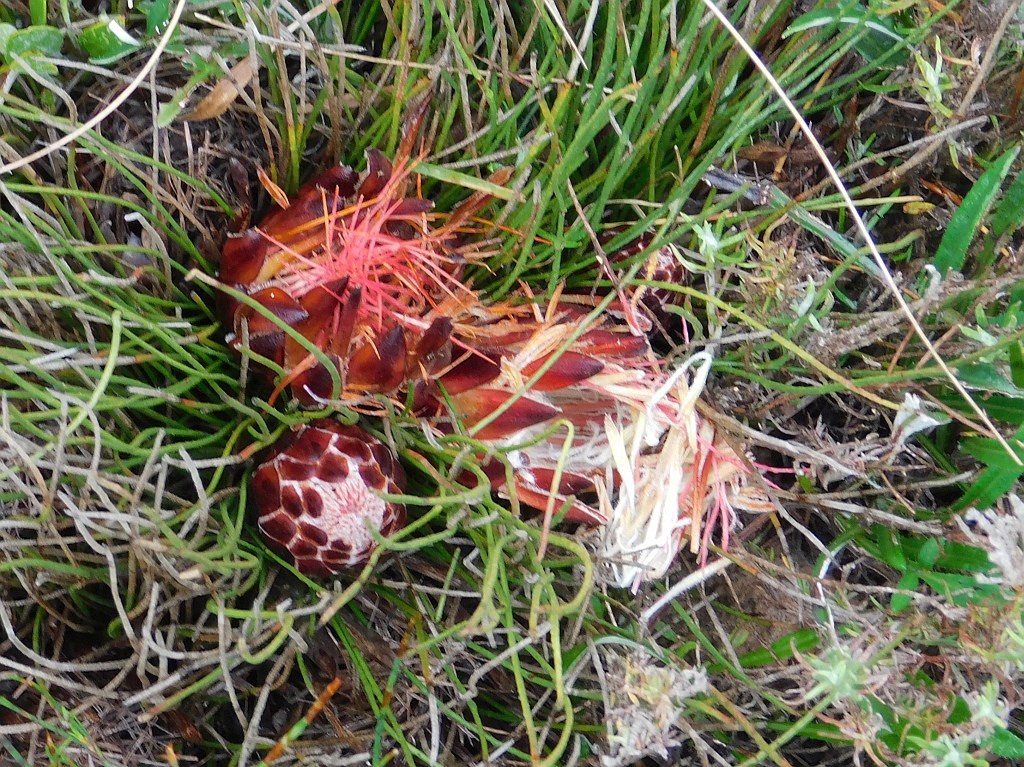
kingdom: Plantae
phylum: Tracheophyta
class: Magnoliopsida
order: Proteales
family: Proteaceae
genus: Protea
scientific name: Protea restionifolia
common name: Reed-leaf sugarbush
